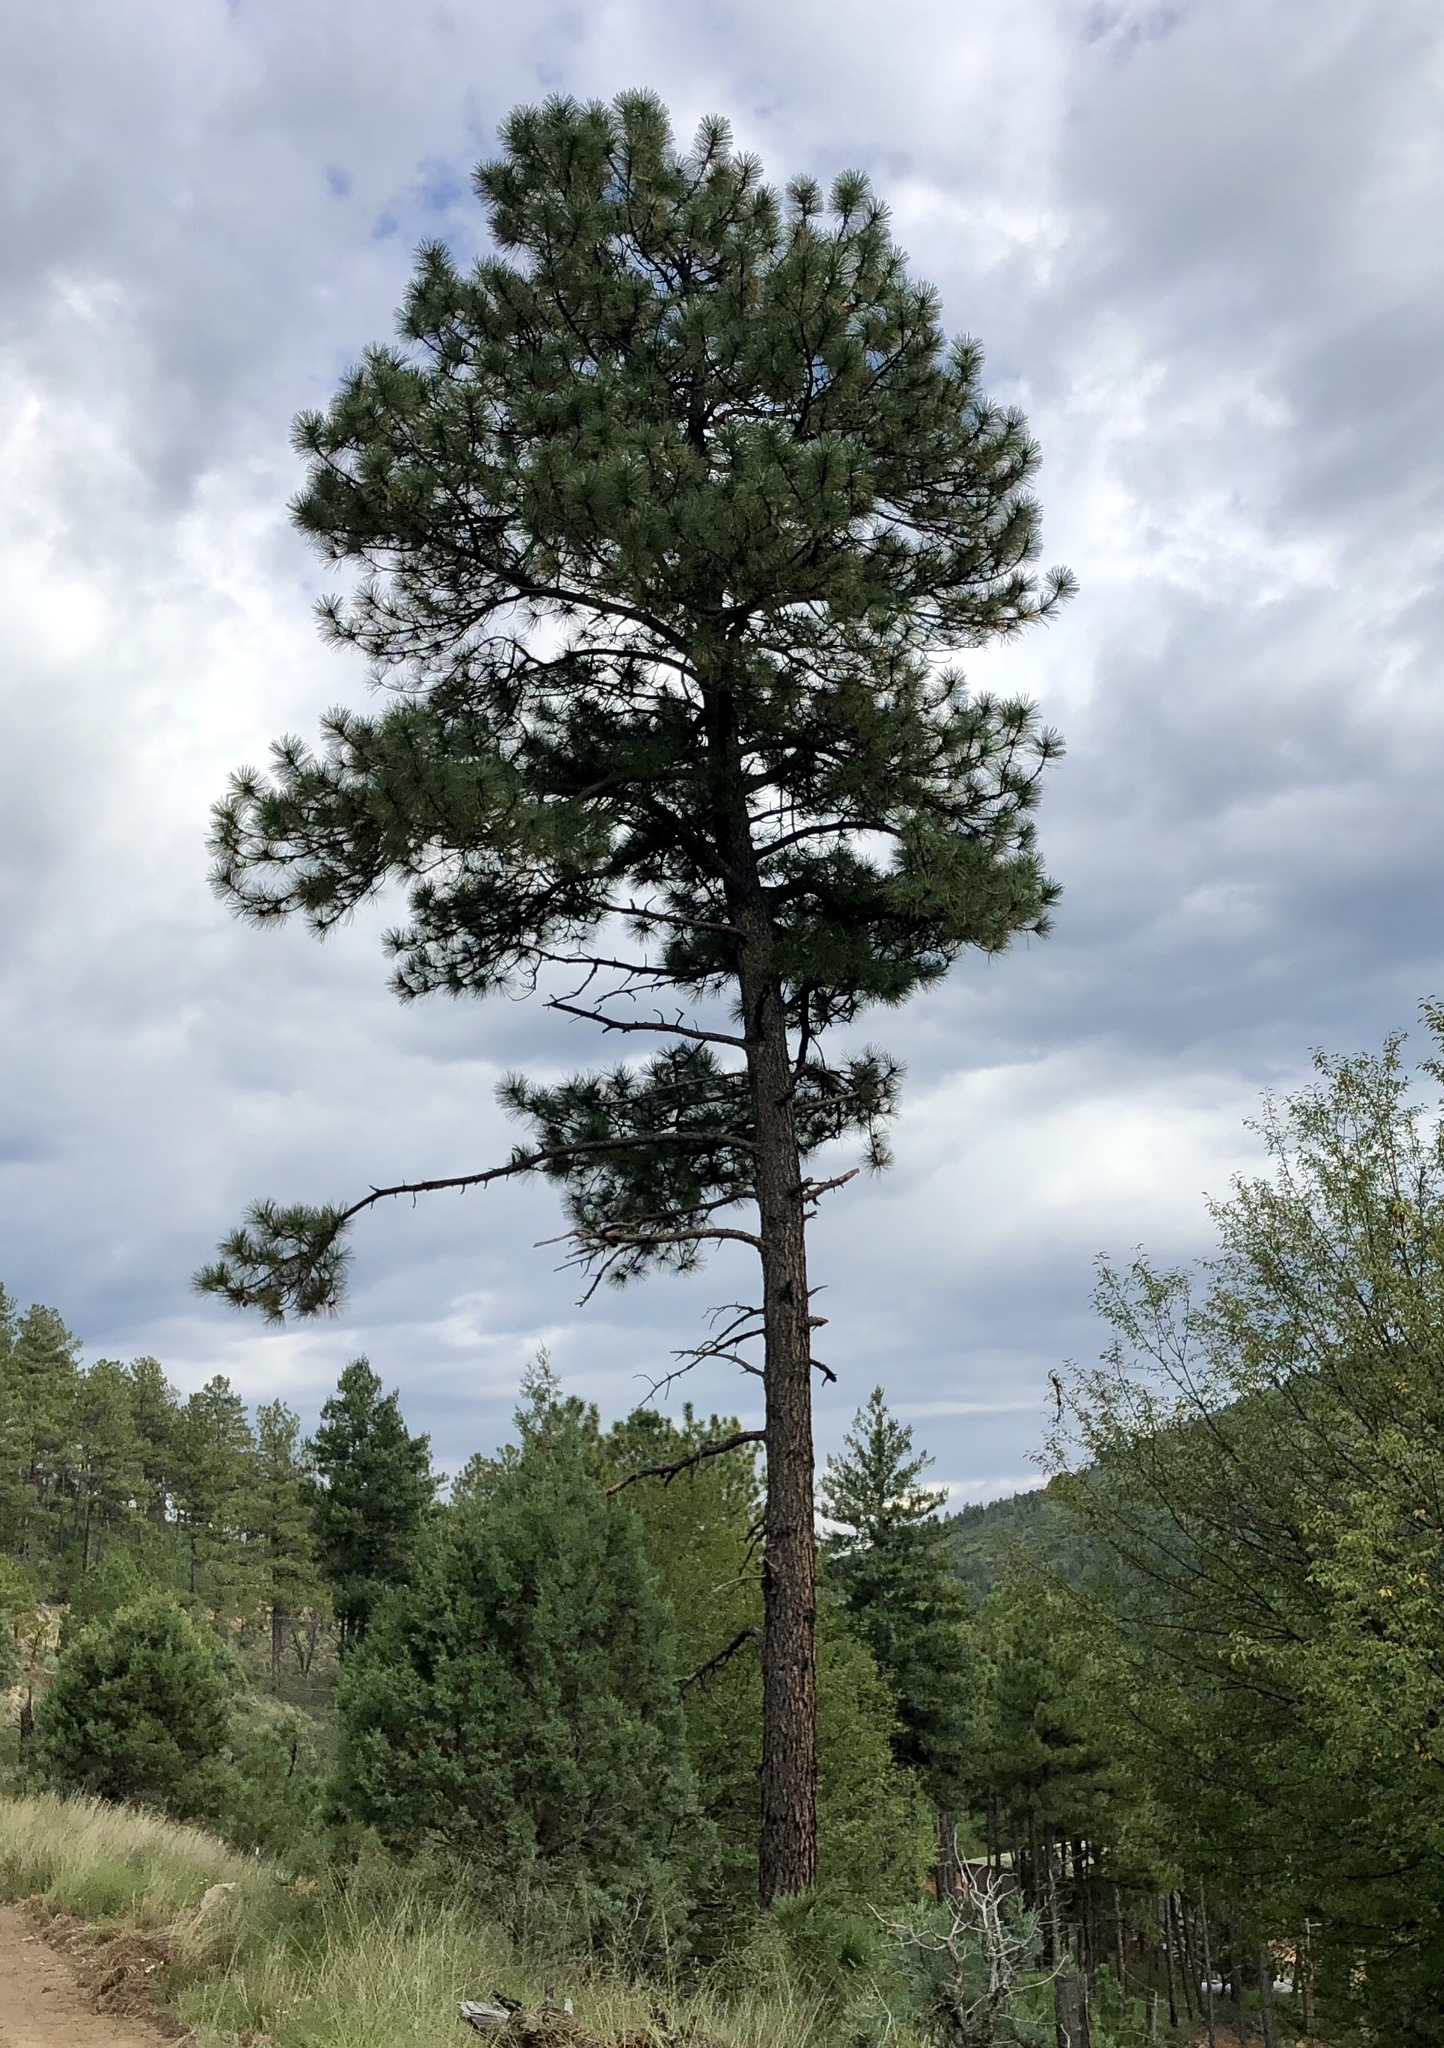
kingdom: Plantae
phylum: Tracheophyta
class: Pinopsida
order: Pinales
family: Pinaceae
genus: Pinus
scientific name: Pinus ponderosa
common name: Western yellow-pine
